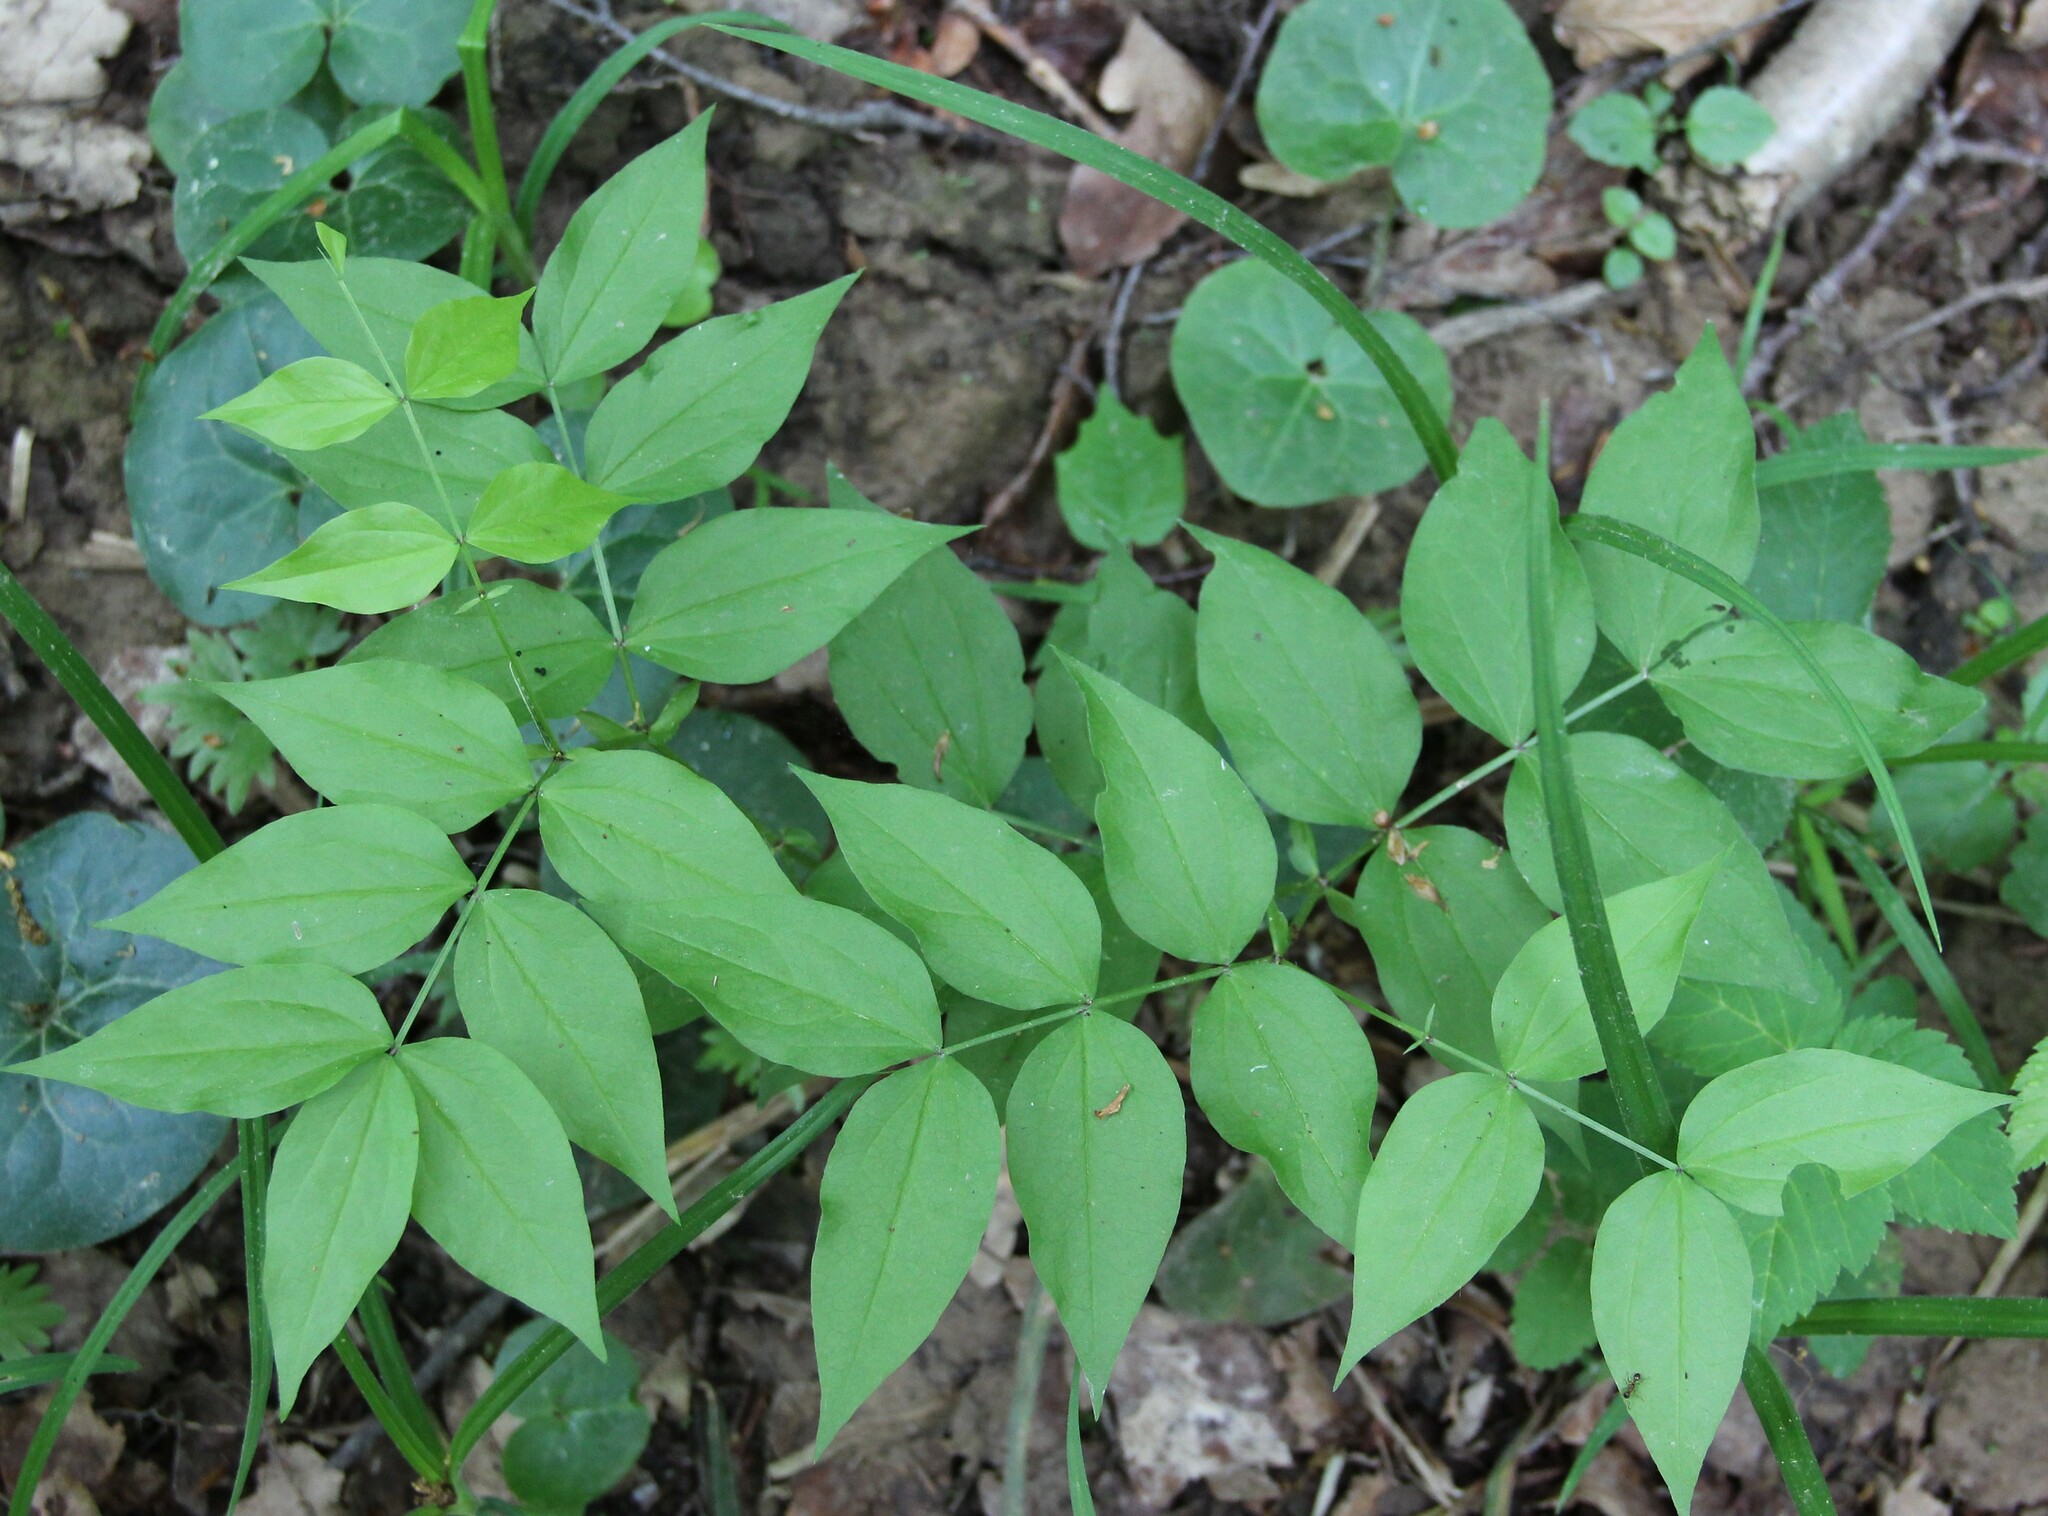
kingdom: Plantae
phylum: Tracheophyta
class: Magnoliopsida
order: Fabales
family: Fabaceae
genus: Lathyrus
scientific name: Lathyrus vernus
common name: Spring pea
